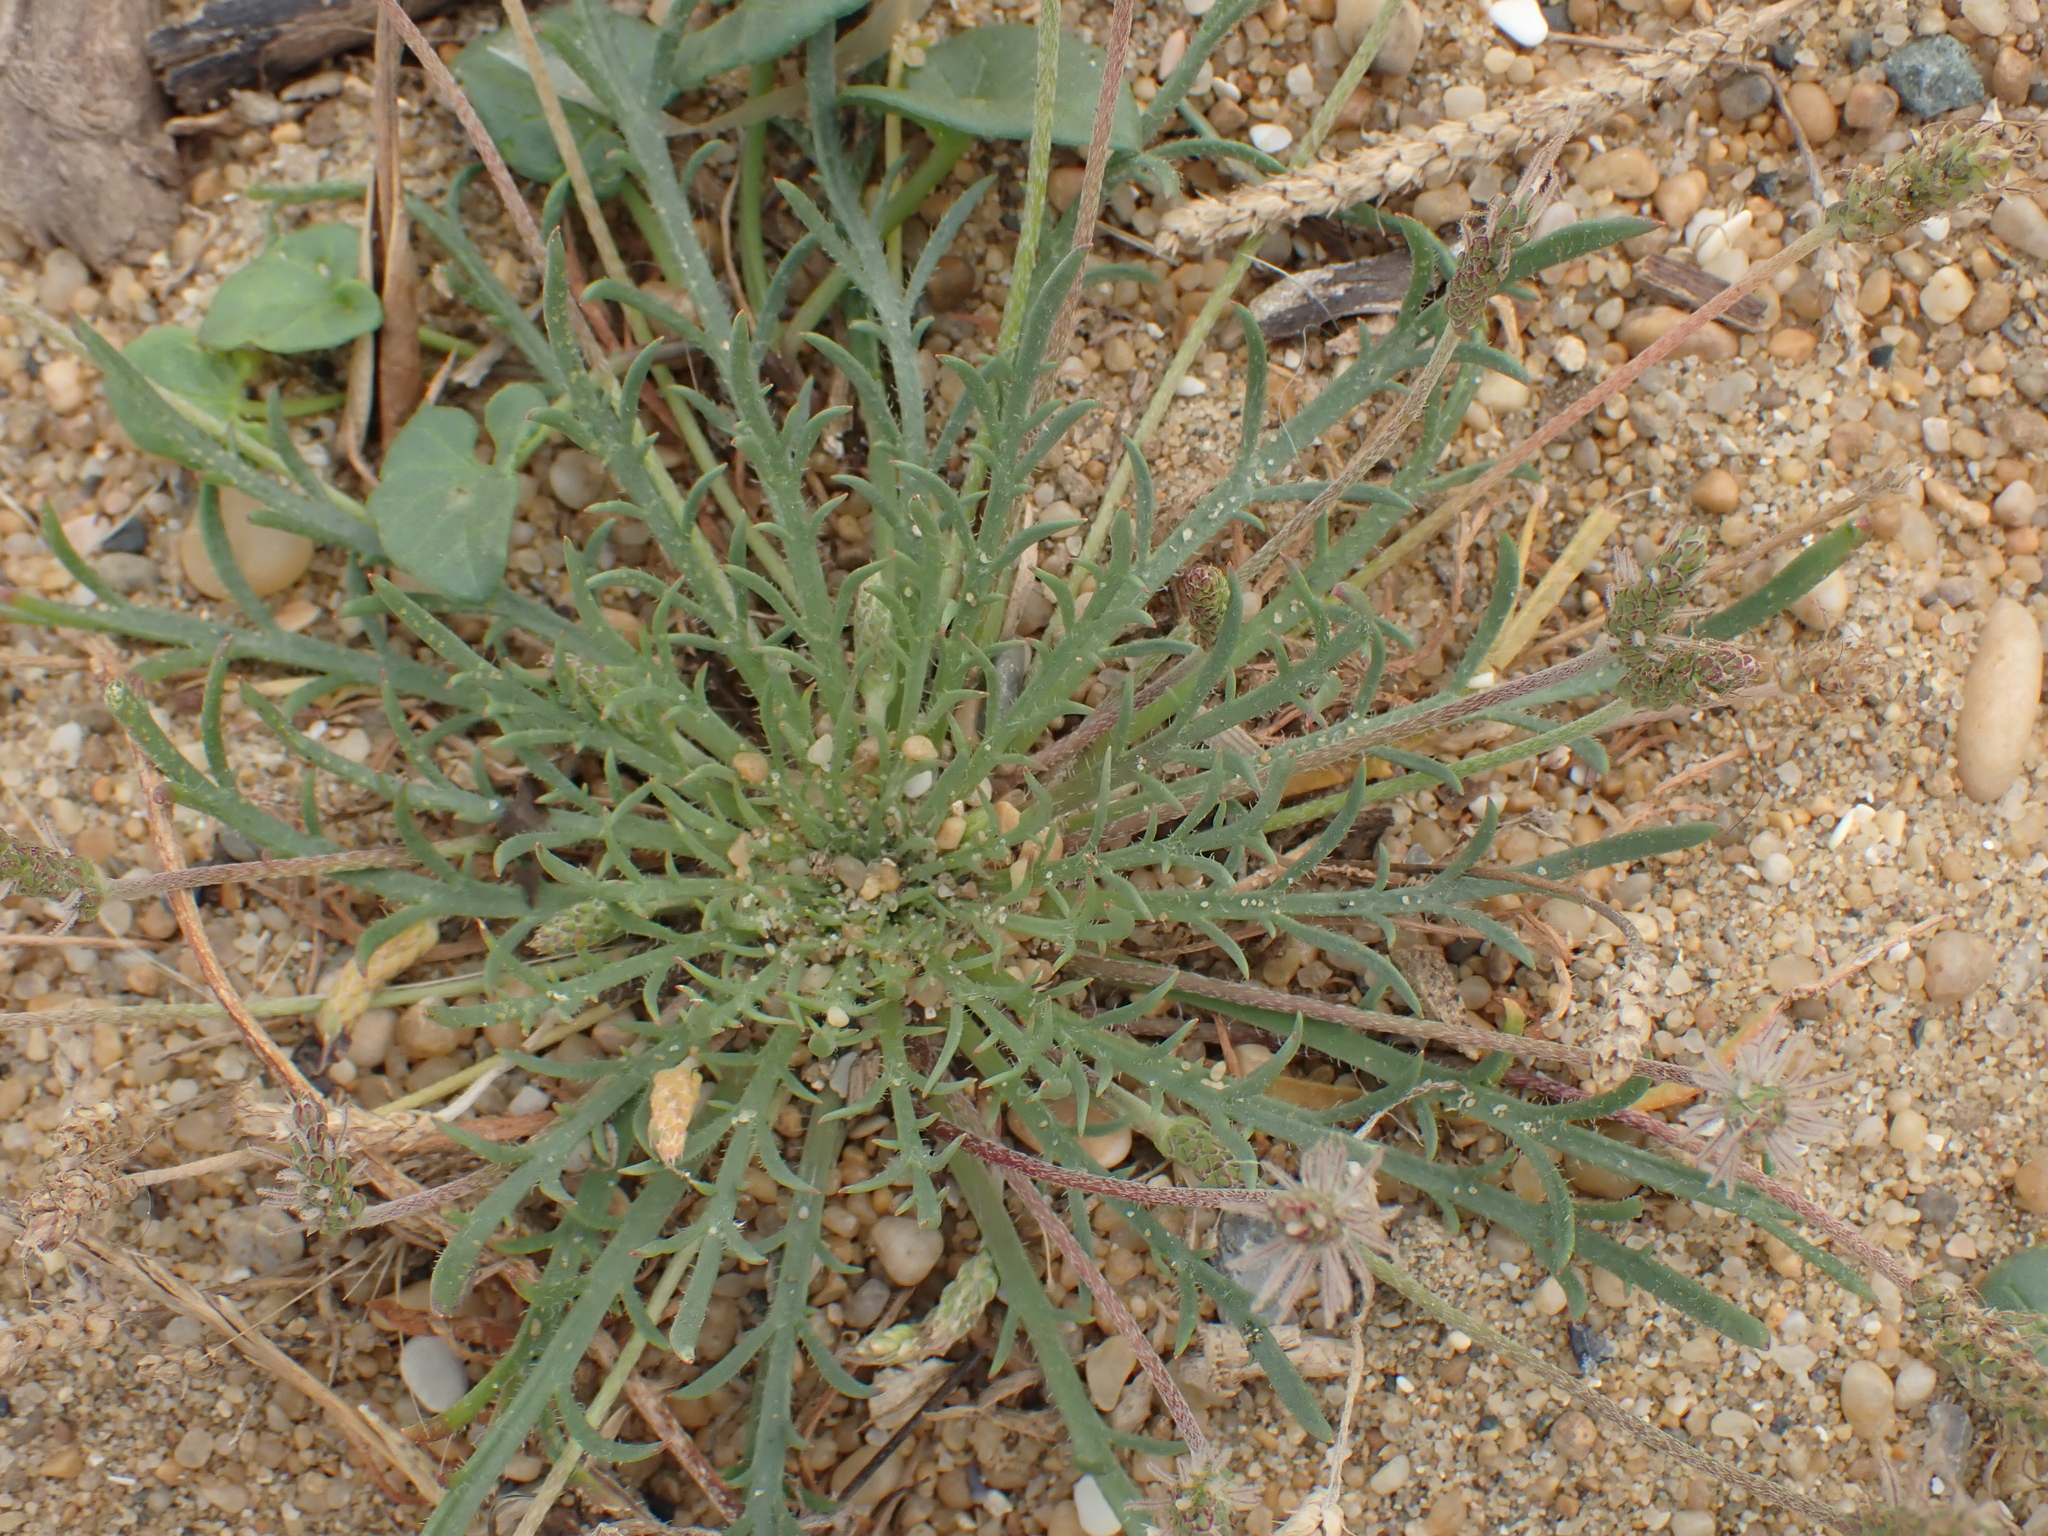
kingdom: Plantae
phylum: Tracheophyta
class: Magnoliopsida
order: Lamiales
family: Plantaginaceae
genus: Plantago
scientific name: Plantago coronopus
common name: Buck's-horn plantain
